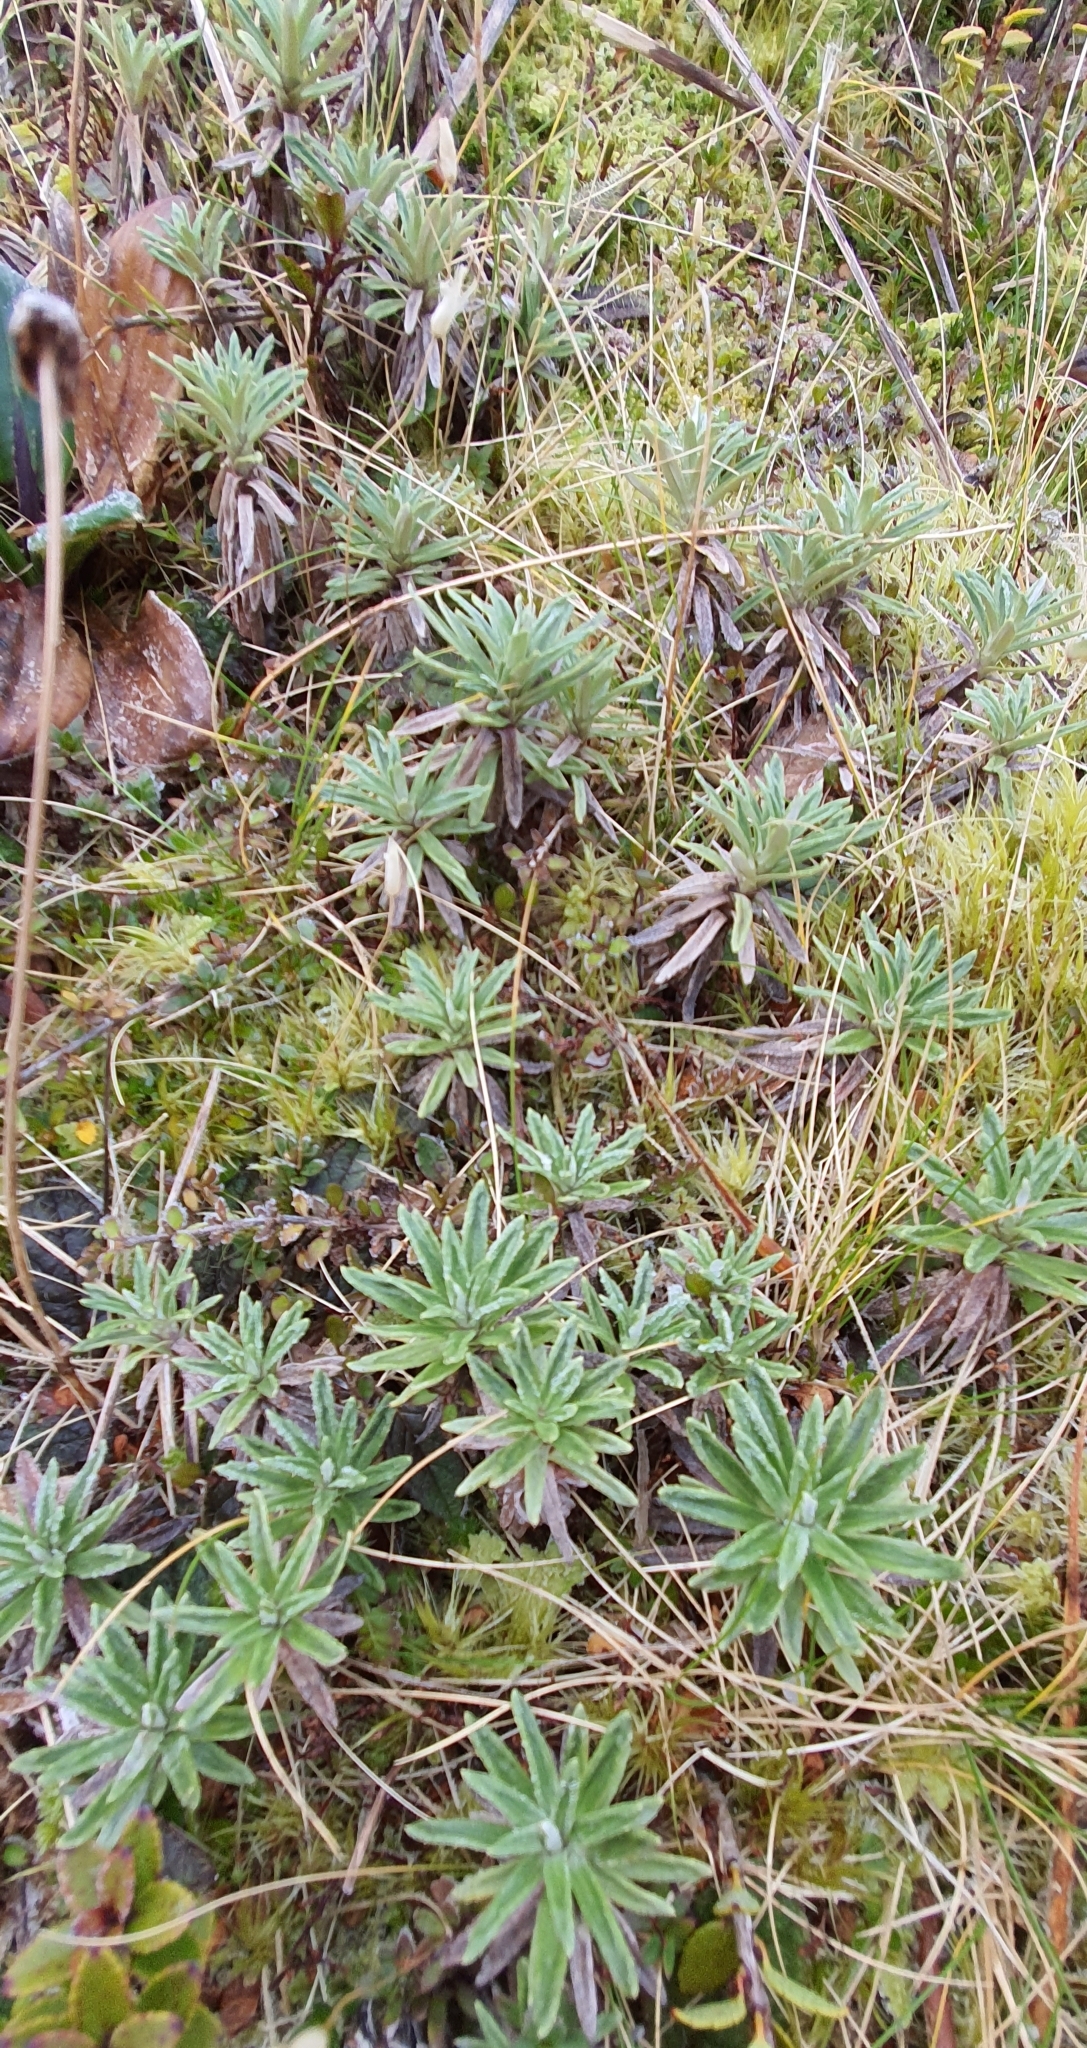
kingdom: Plantae
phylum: Tracheophyta
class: Magnoliopsida
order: Asterales
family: Asteraceae
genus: Celmisia
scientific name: Celmisia walkeri
